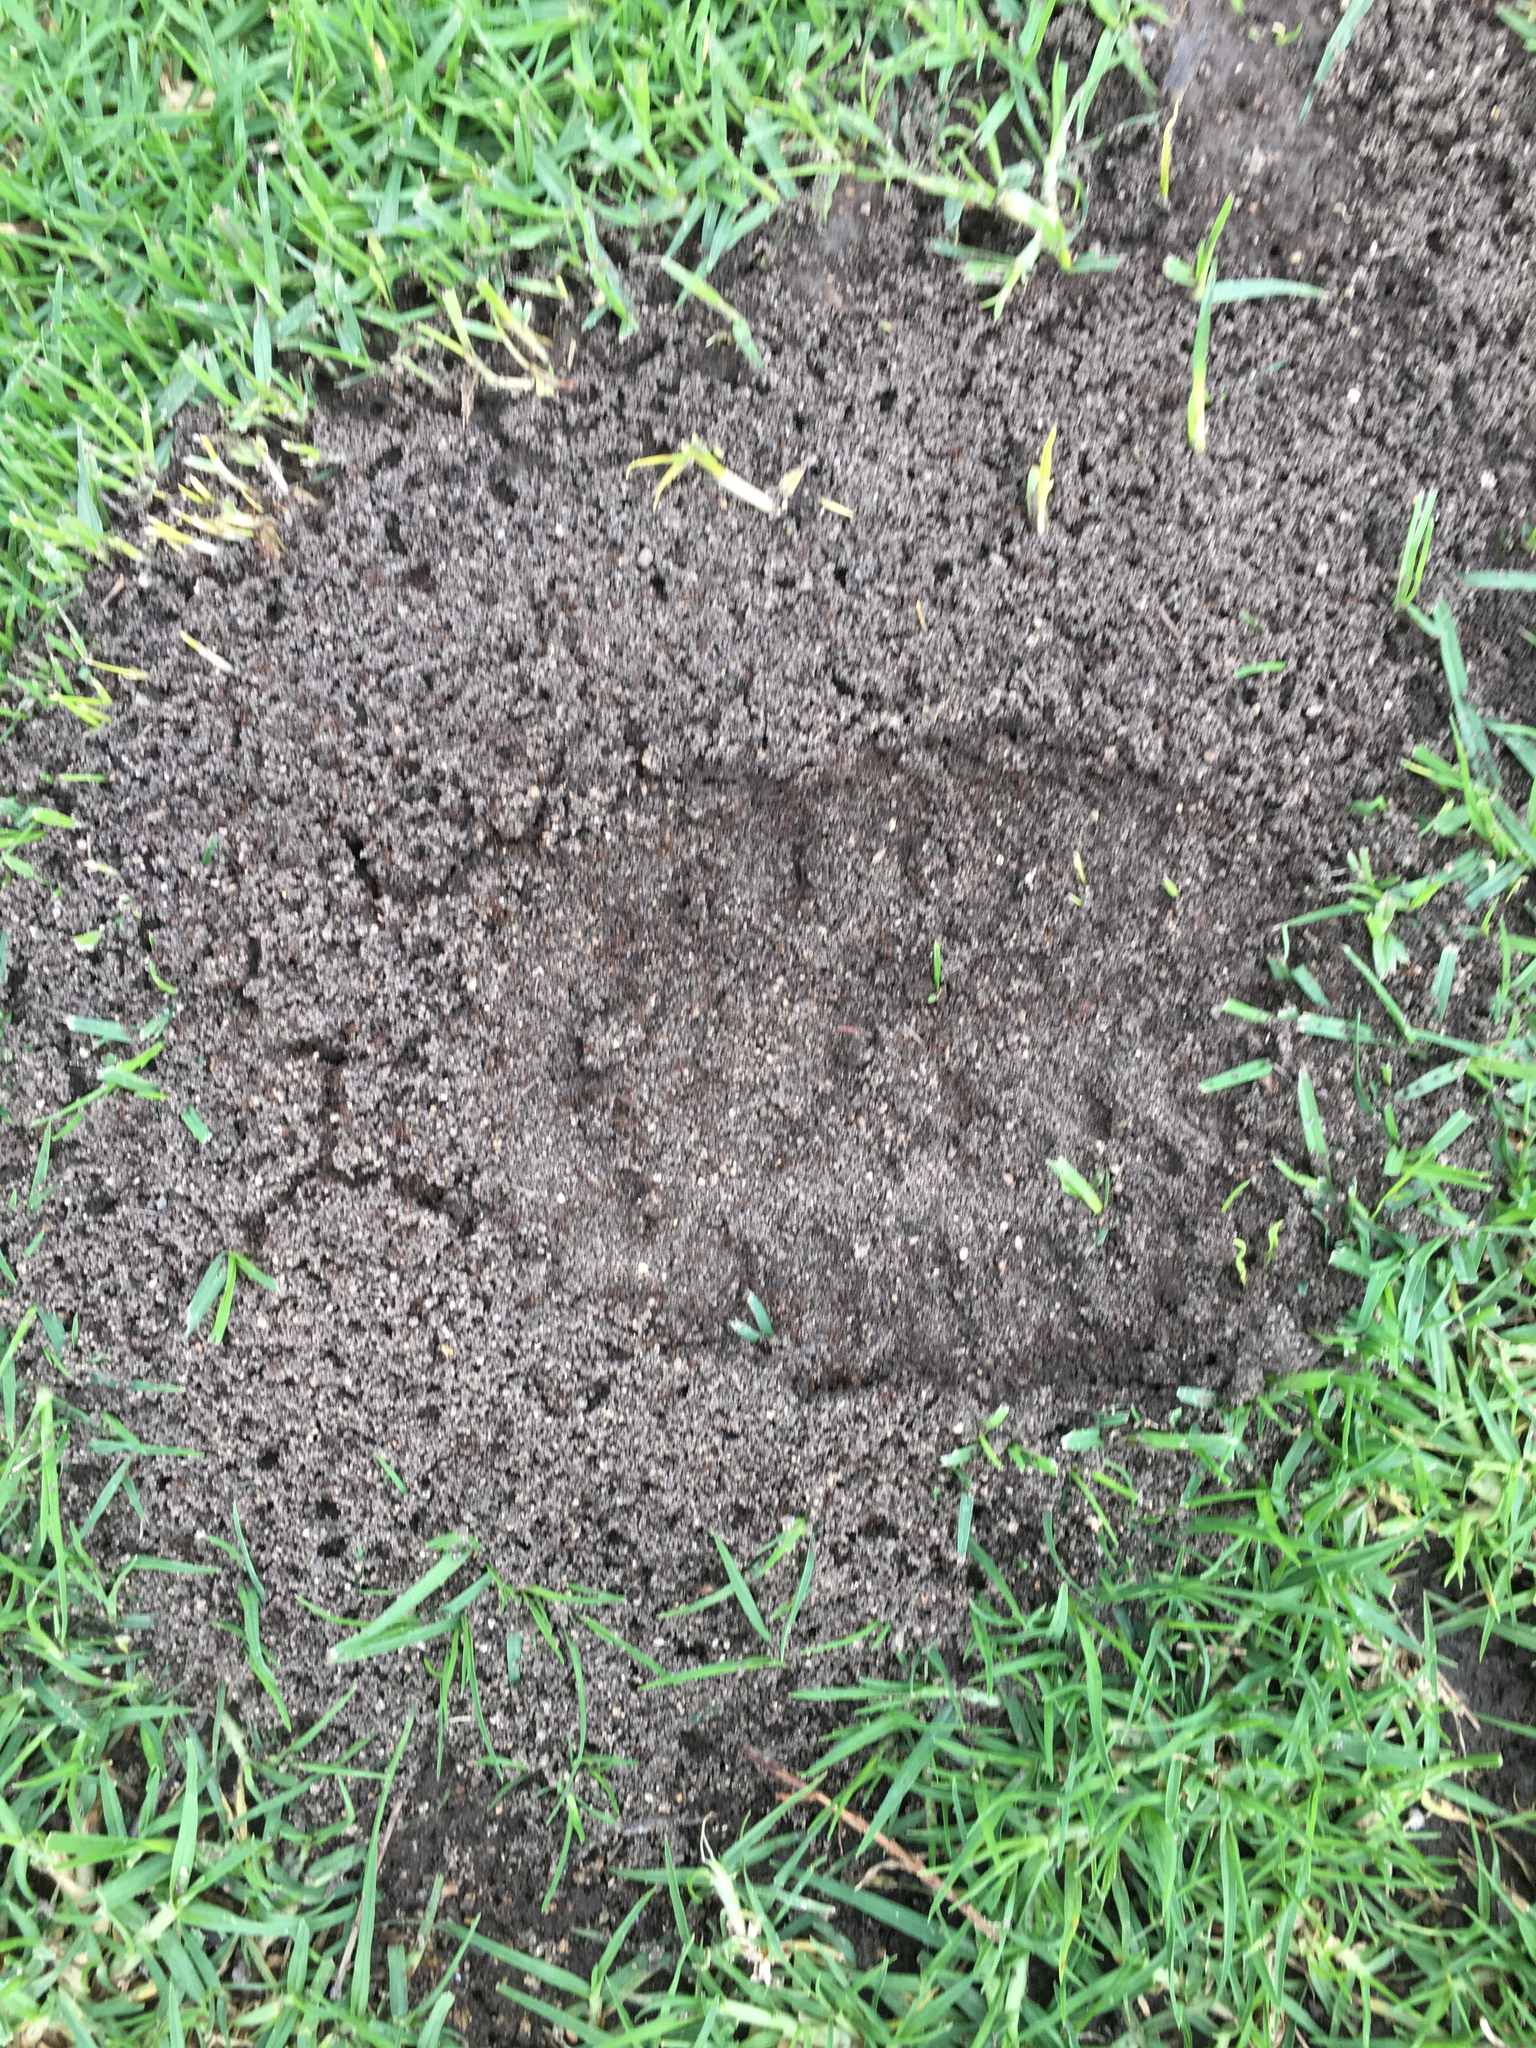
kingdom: Animalia
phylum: Arthropoda
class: Insecta
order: Hymenoptera
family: Formicidae
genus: Solenopsis
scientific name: Solenopsis invicta
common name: Red imported fire ant
